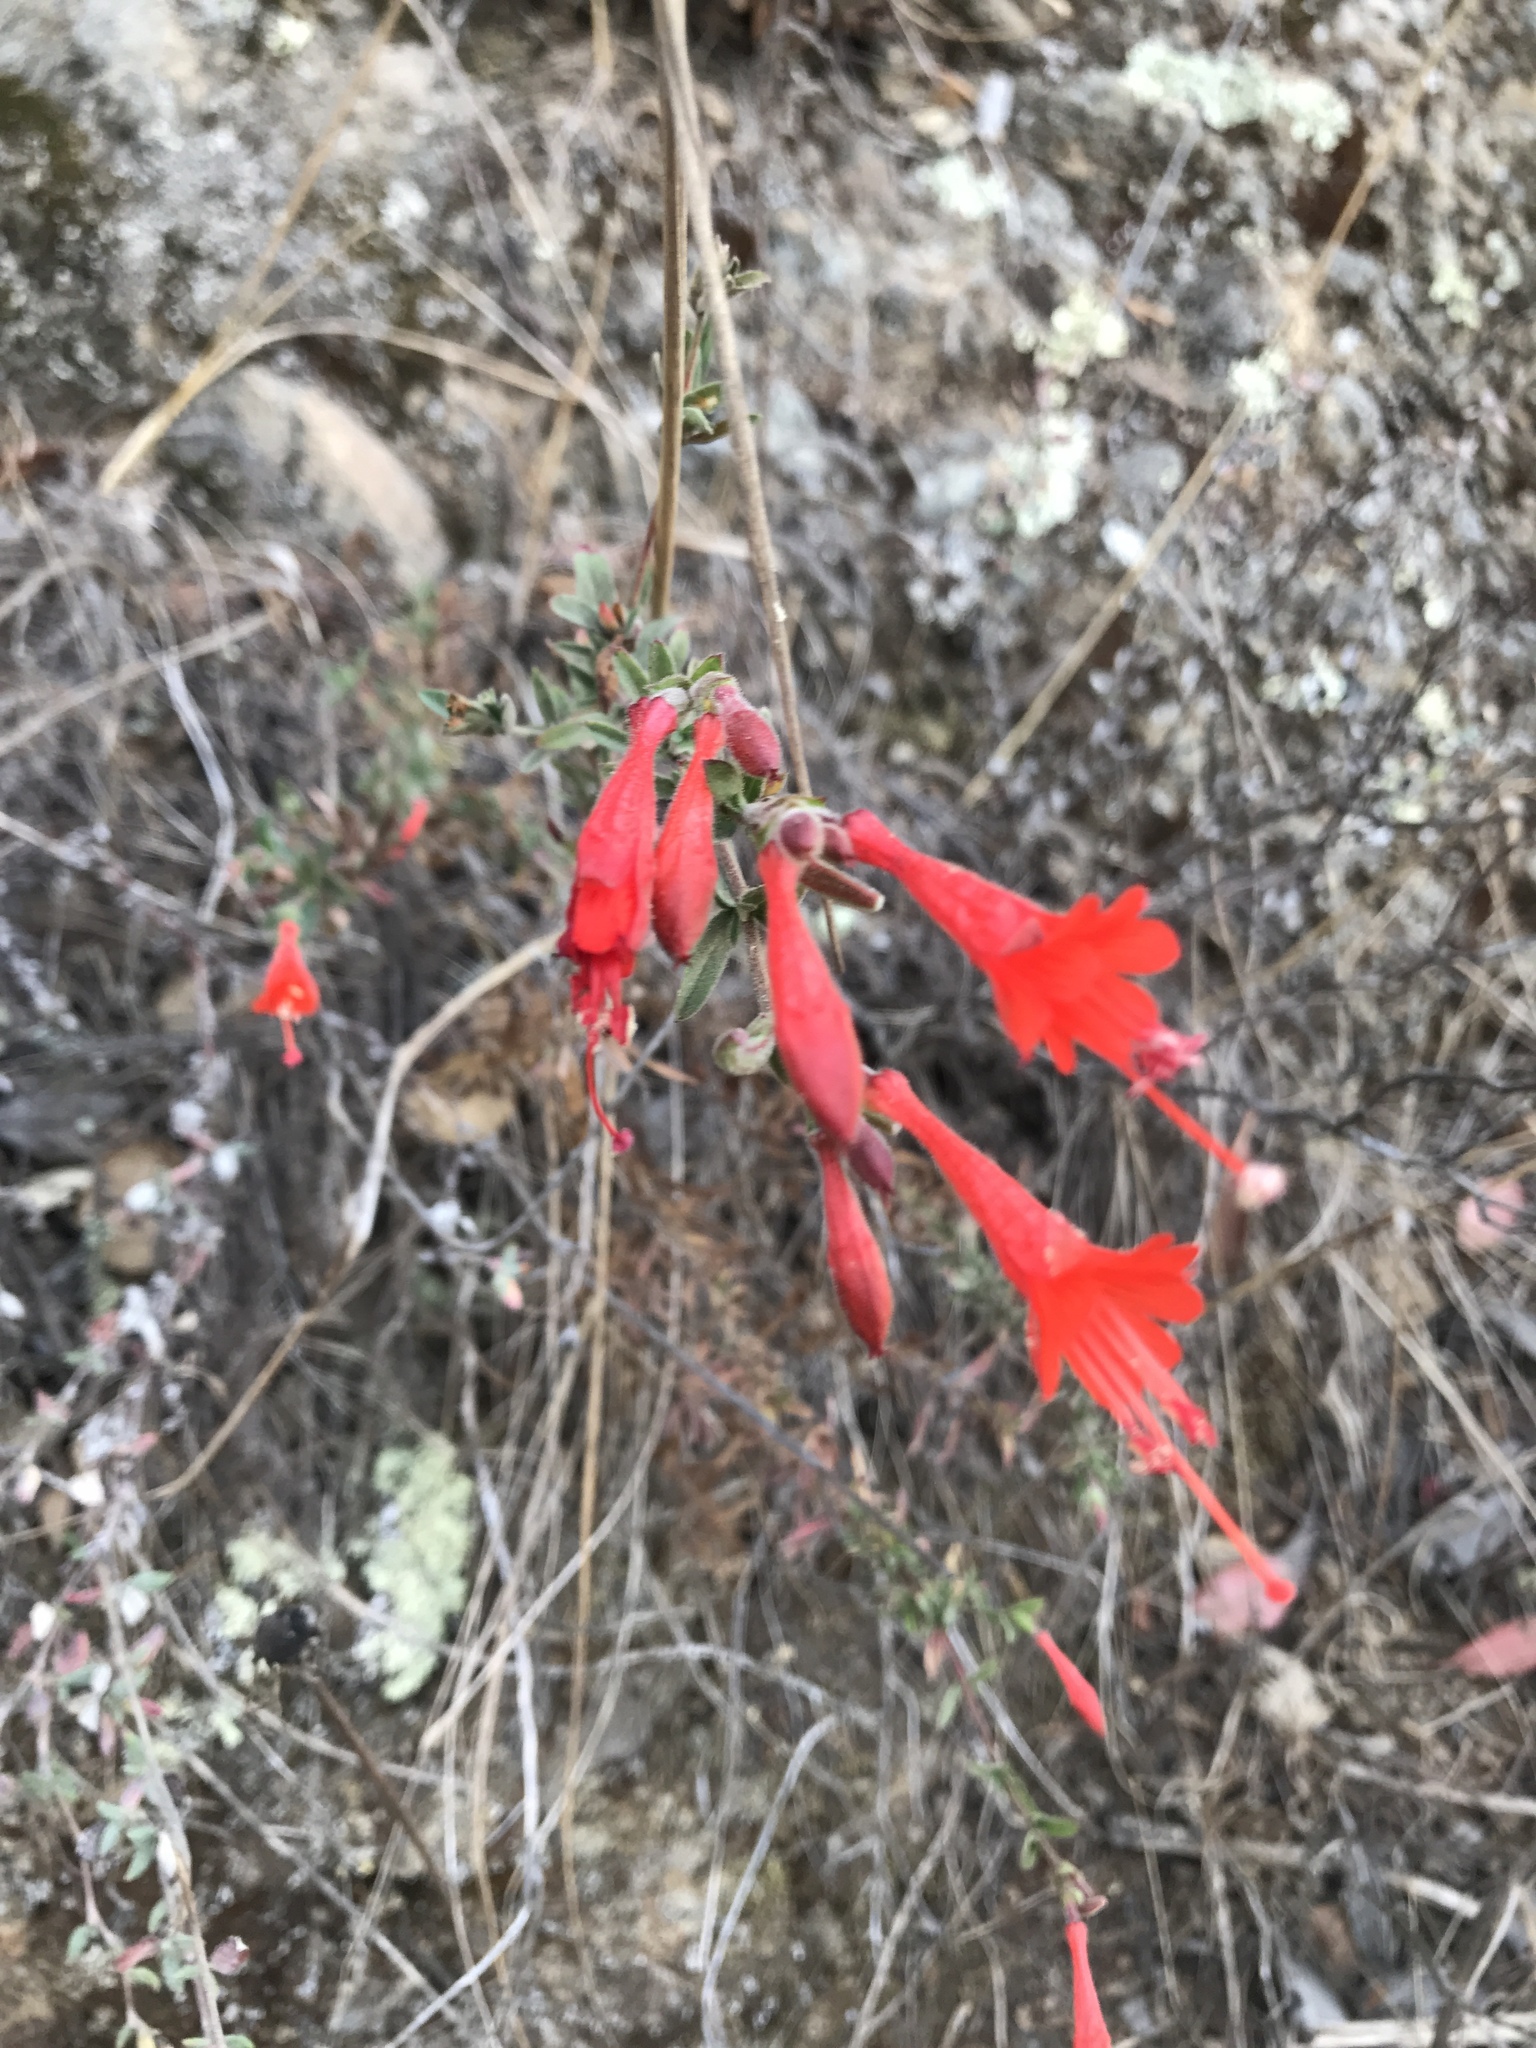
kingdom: Plantae
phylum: Tracheophyta
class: Magnoliopsida
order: Myrtales
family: Onagraceae
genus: Epilobium
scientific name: Epilobium canum
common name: California-fuchsia
